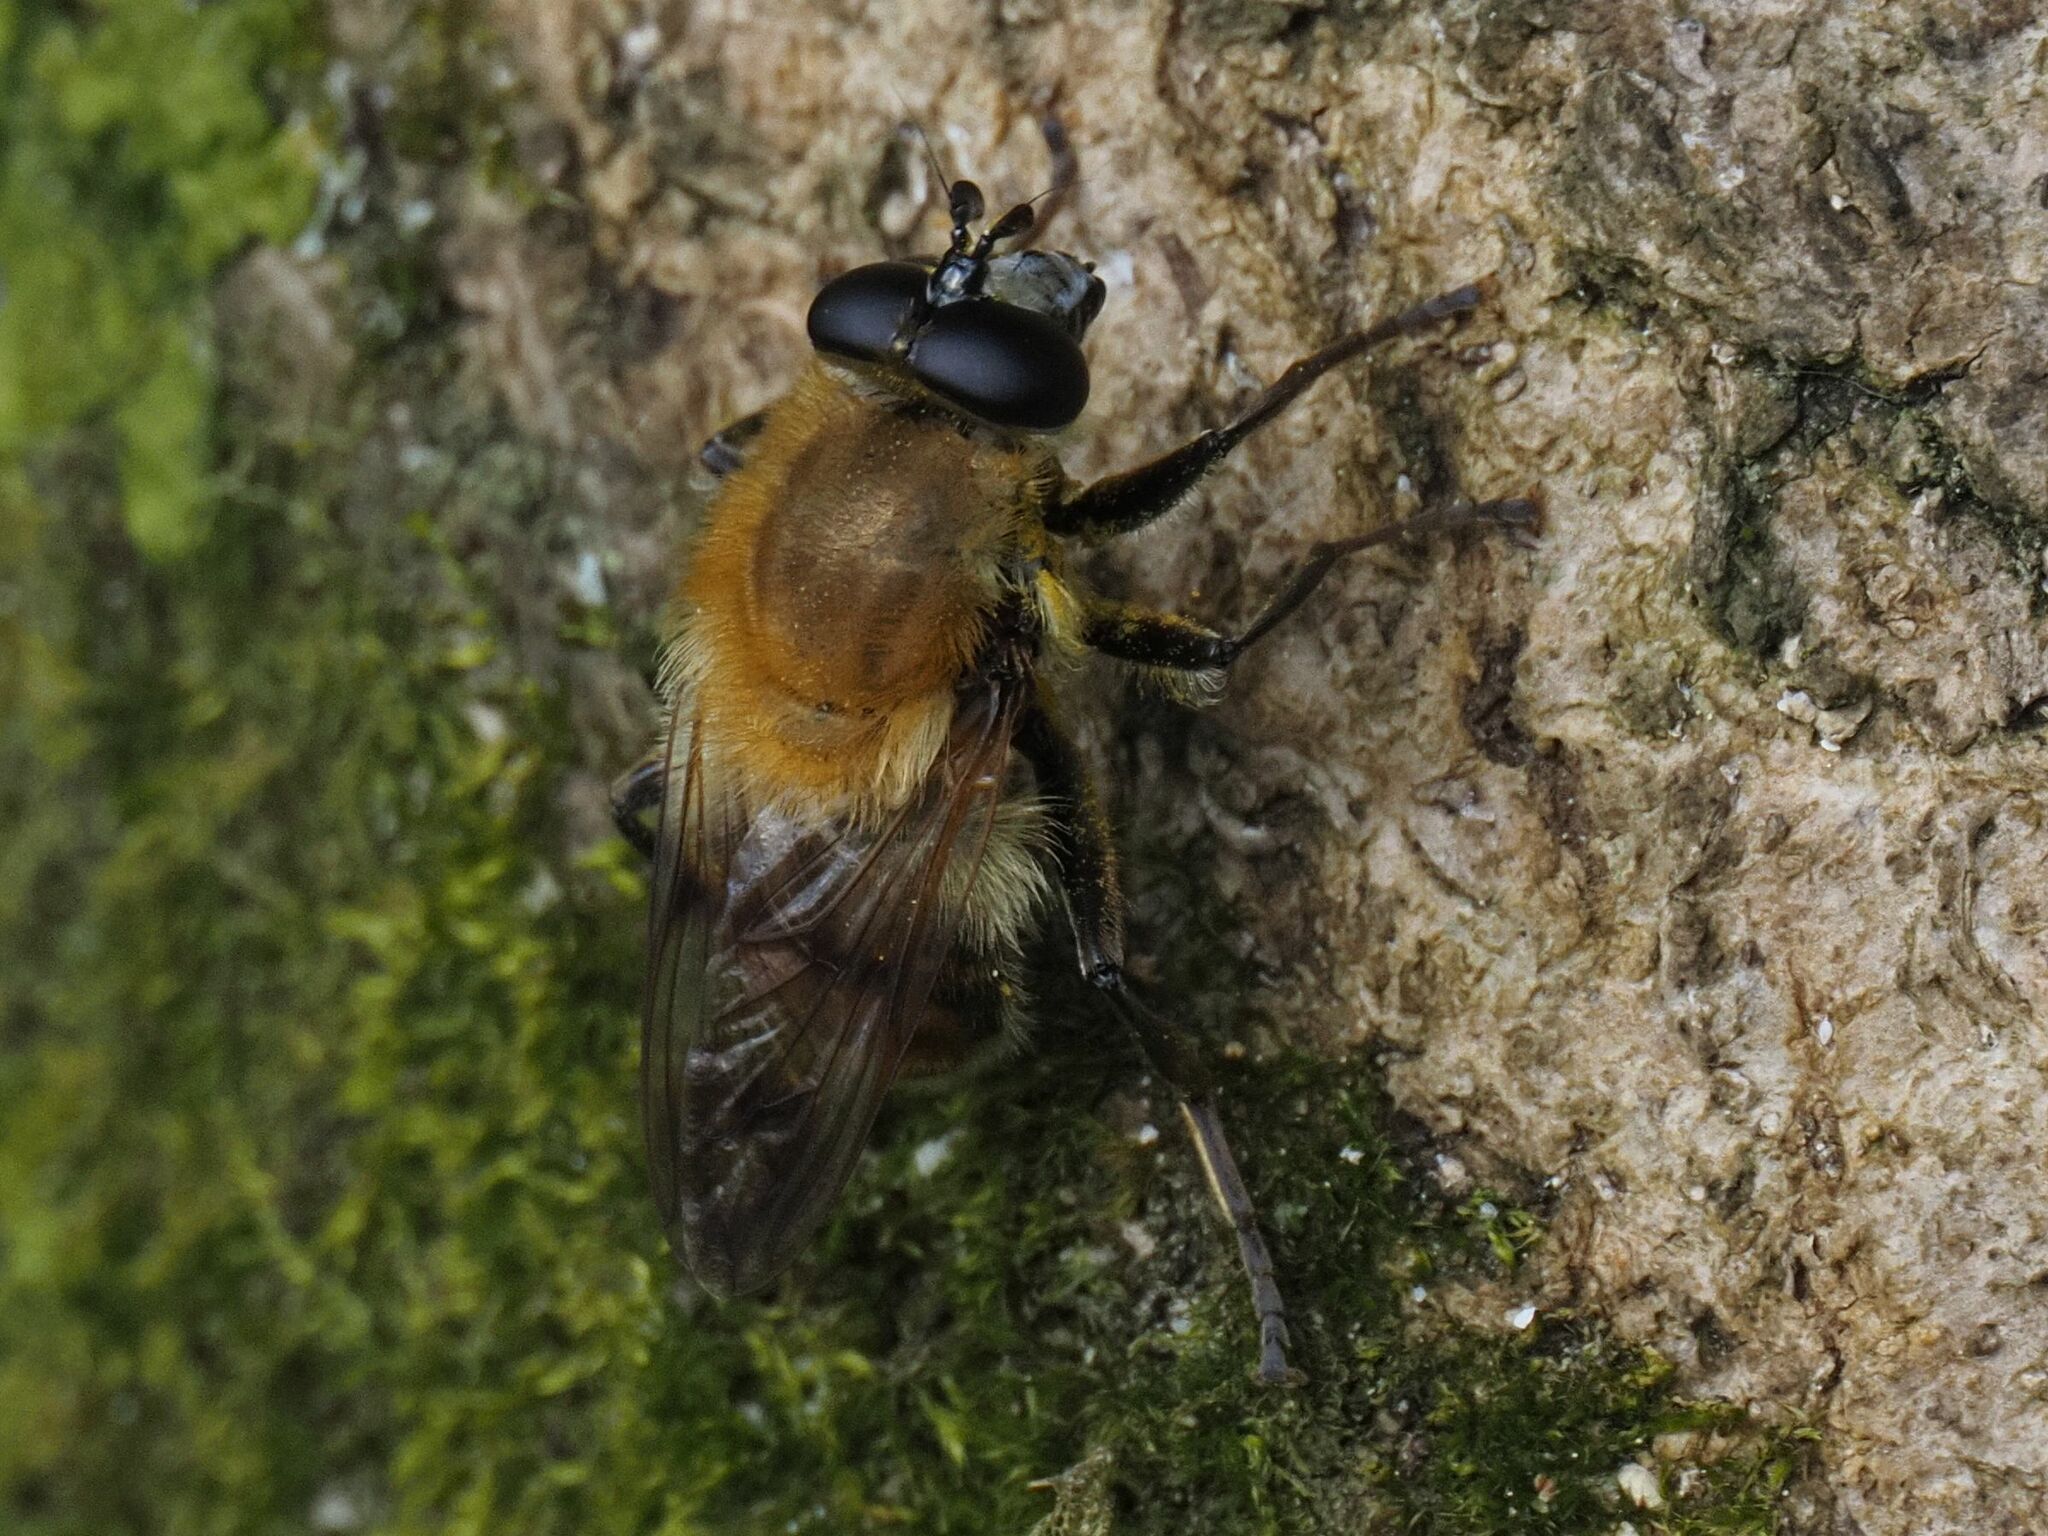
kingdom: Animalia
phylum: Arthropoda
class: Insecta
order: Diptera
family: Syrphidae
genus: Criorhina
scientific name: Criorhina floccosa
